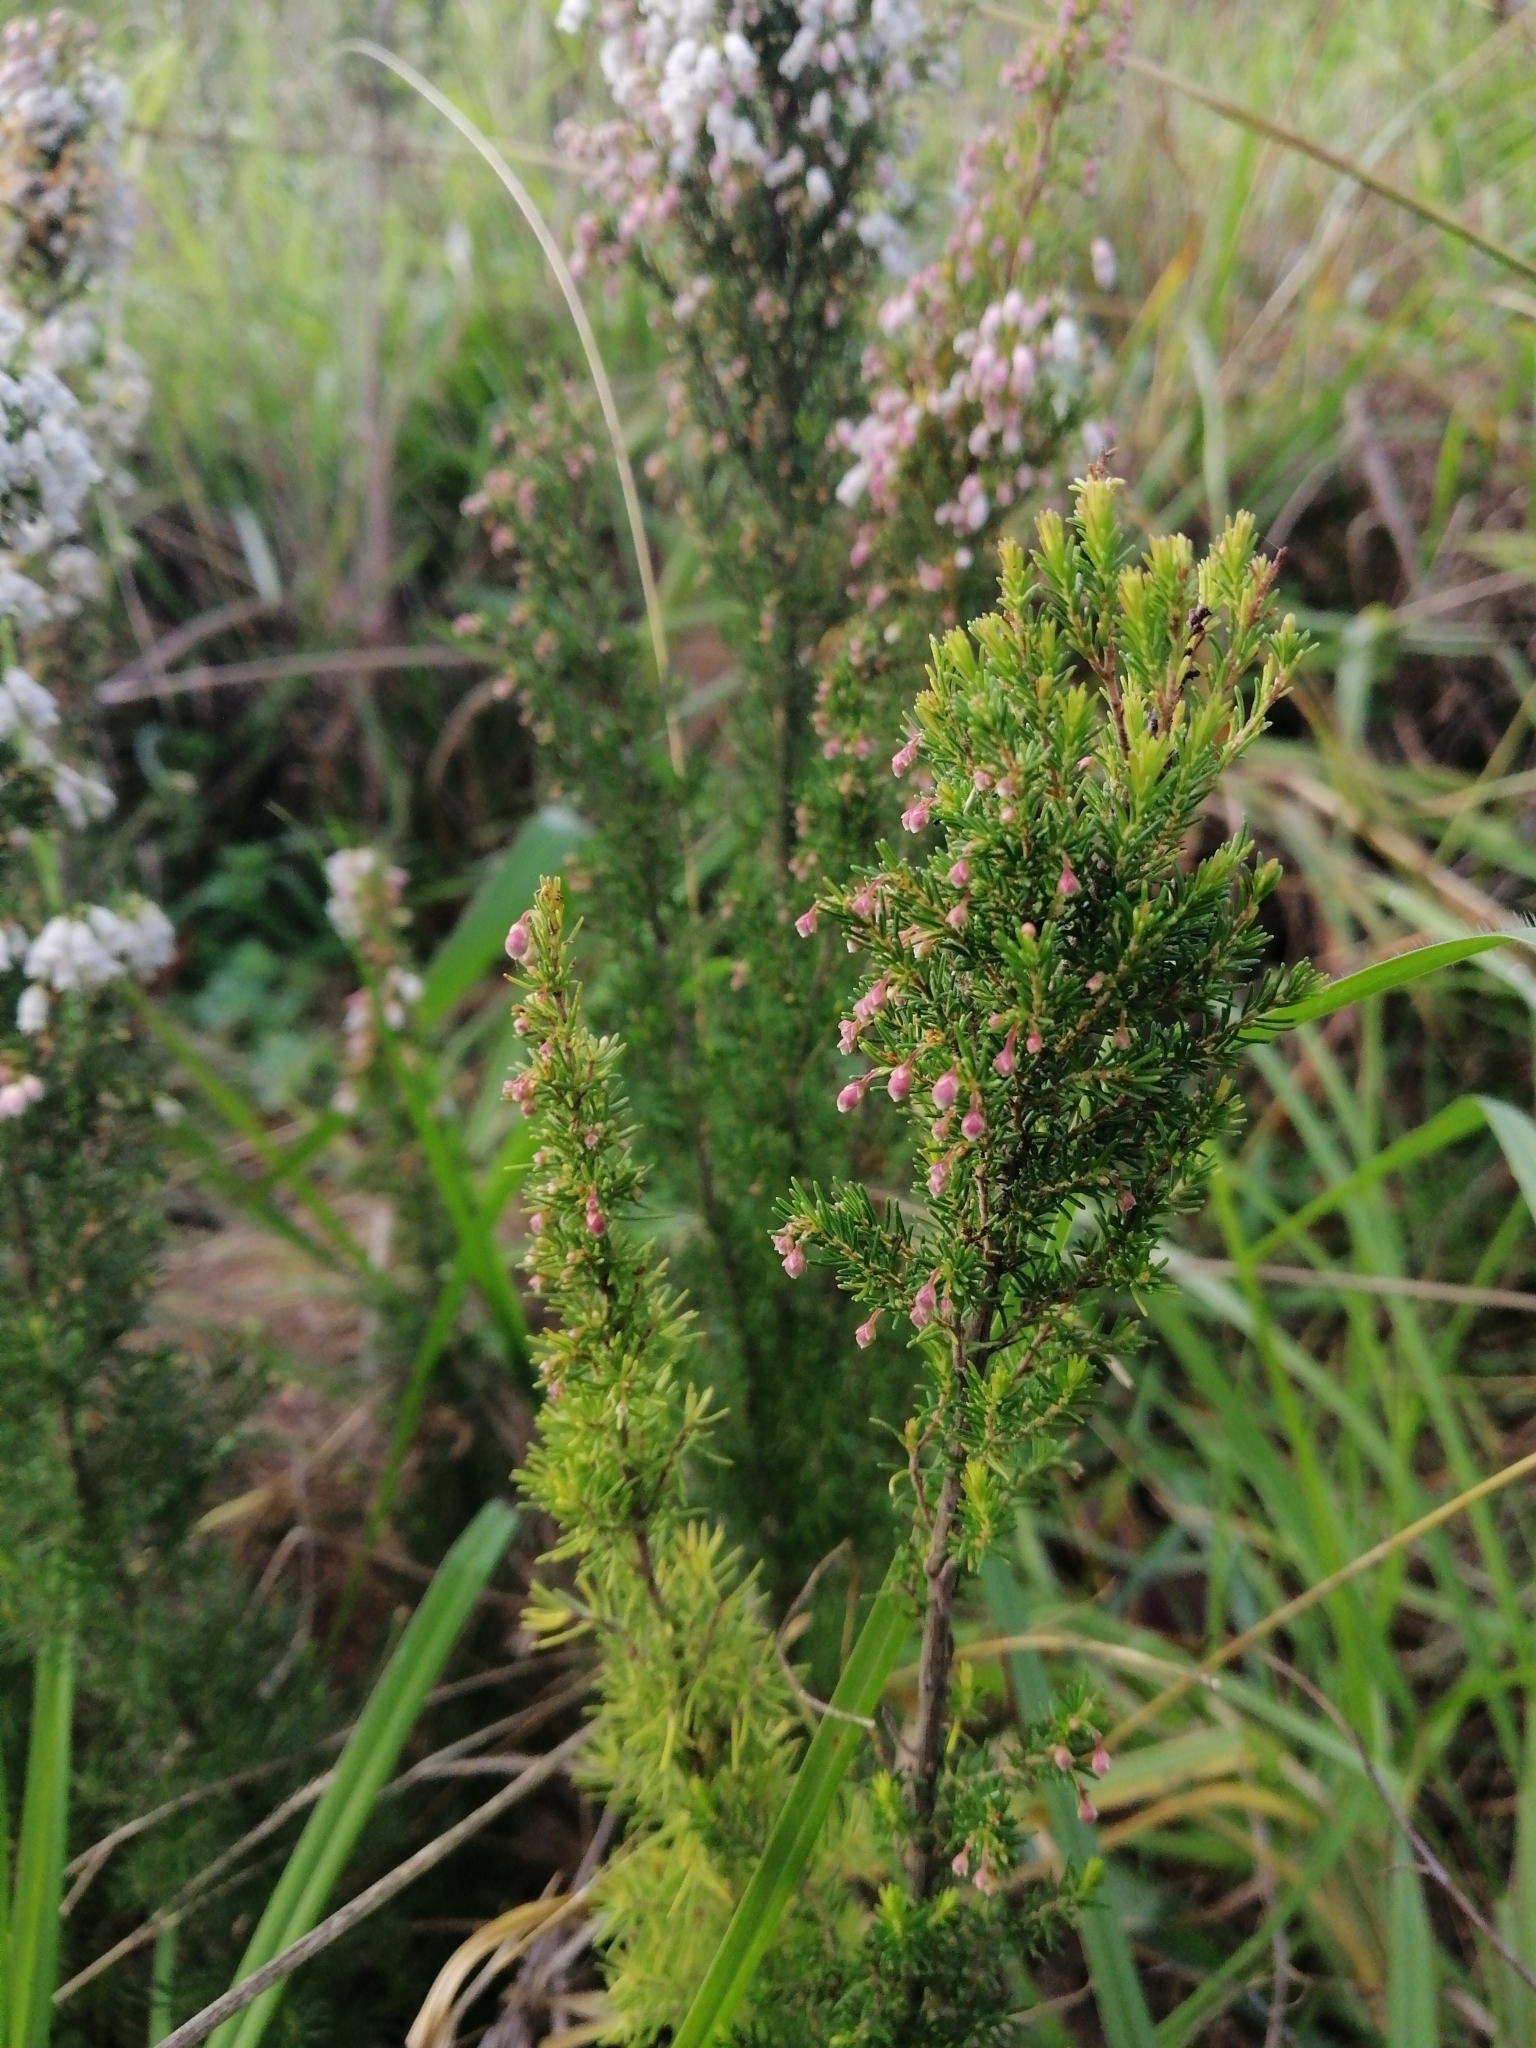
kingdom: Plantae
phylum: Tracheophyta
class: Magnoliopsida
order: Ericales
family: Ericaceae
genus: Erica
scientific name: Erica lusitanica
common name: Spanish heath
